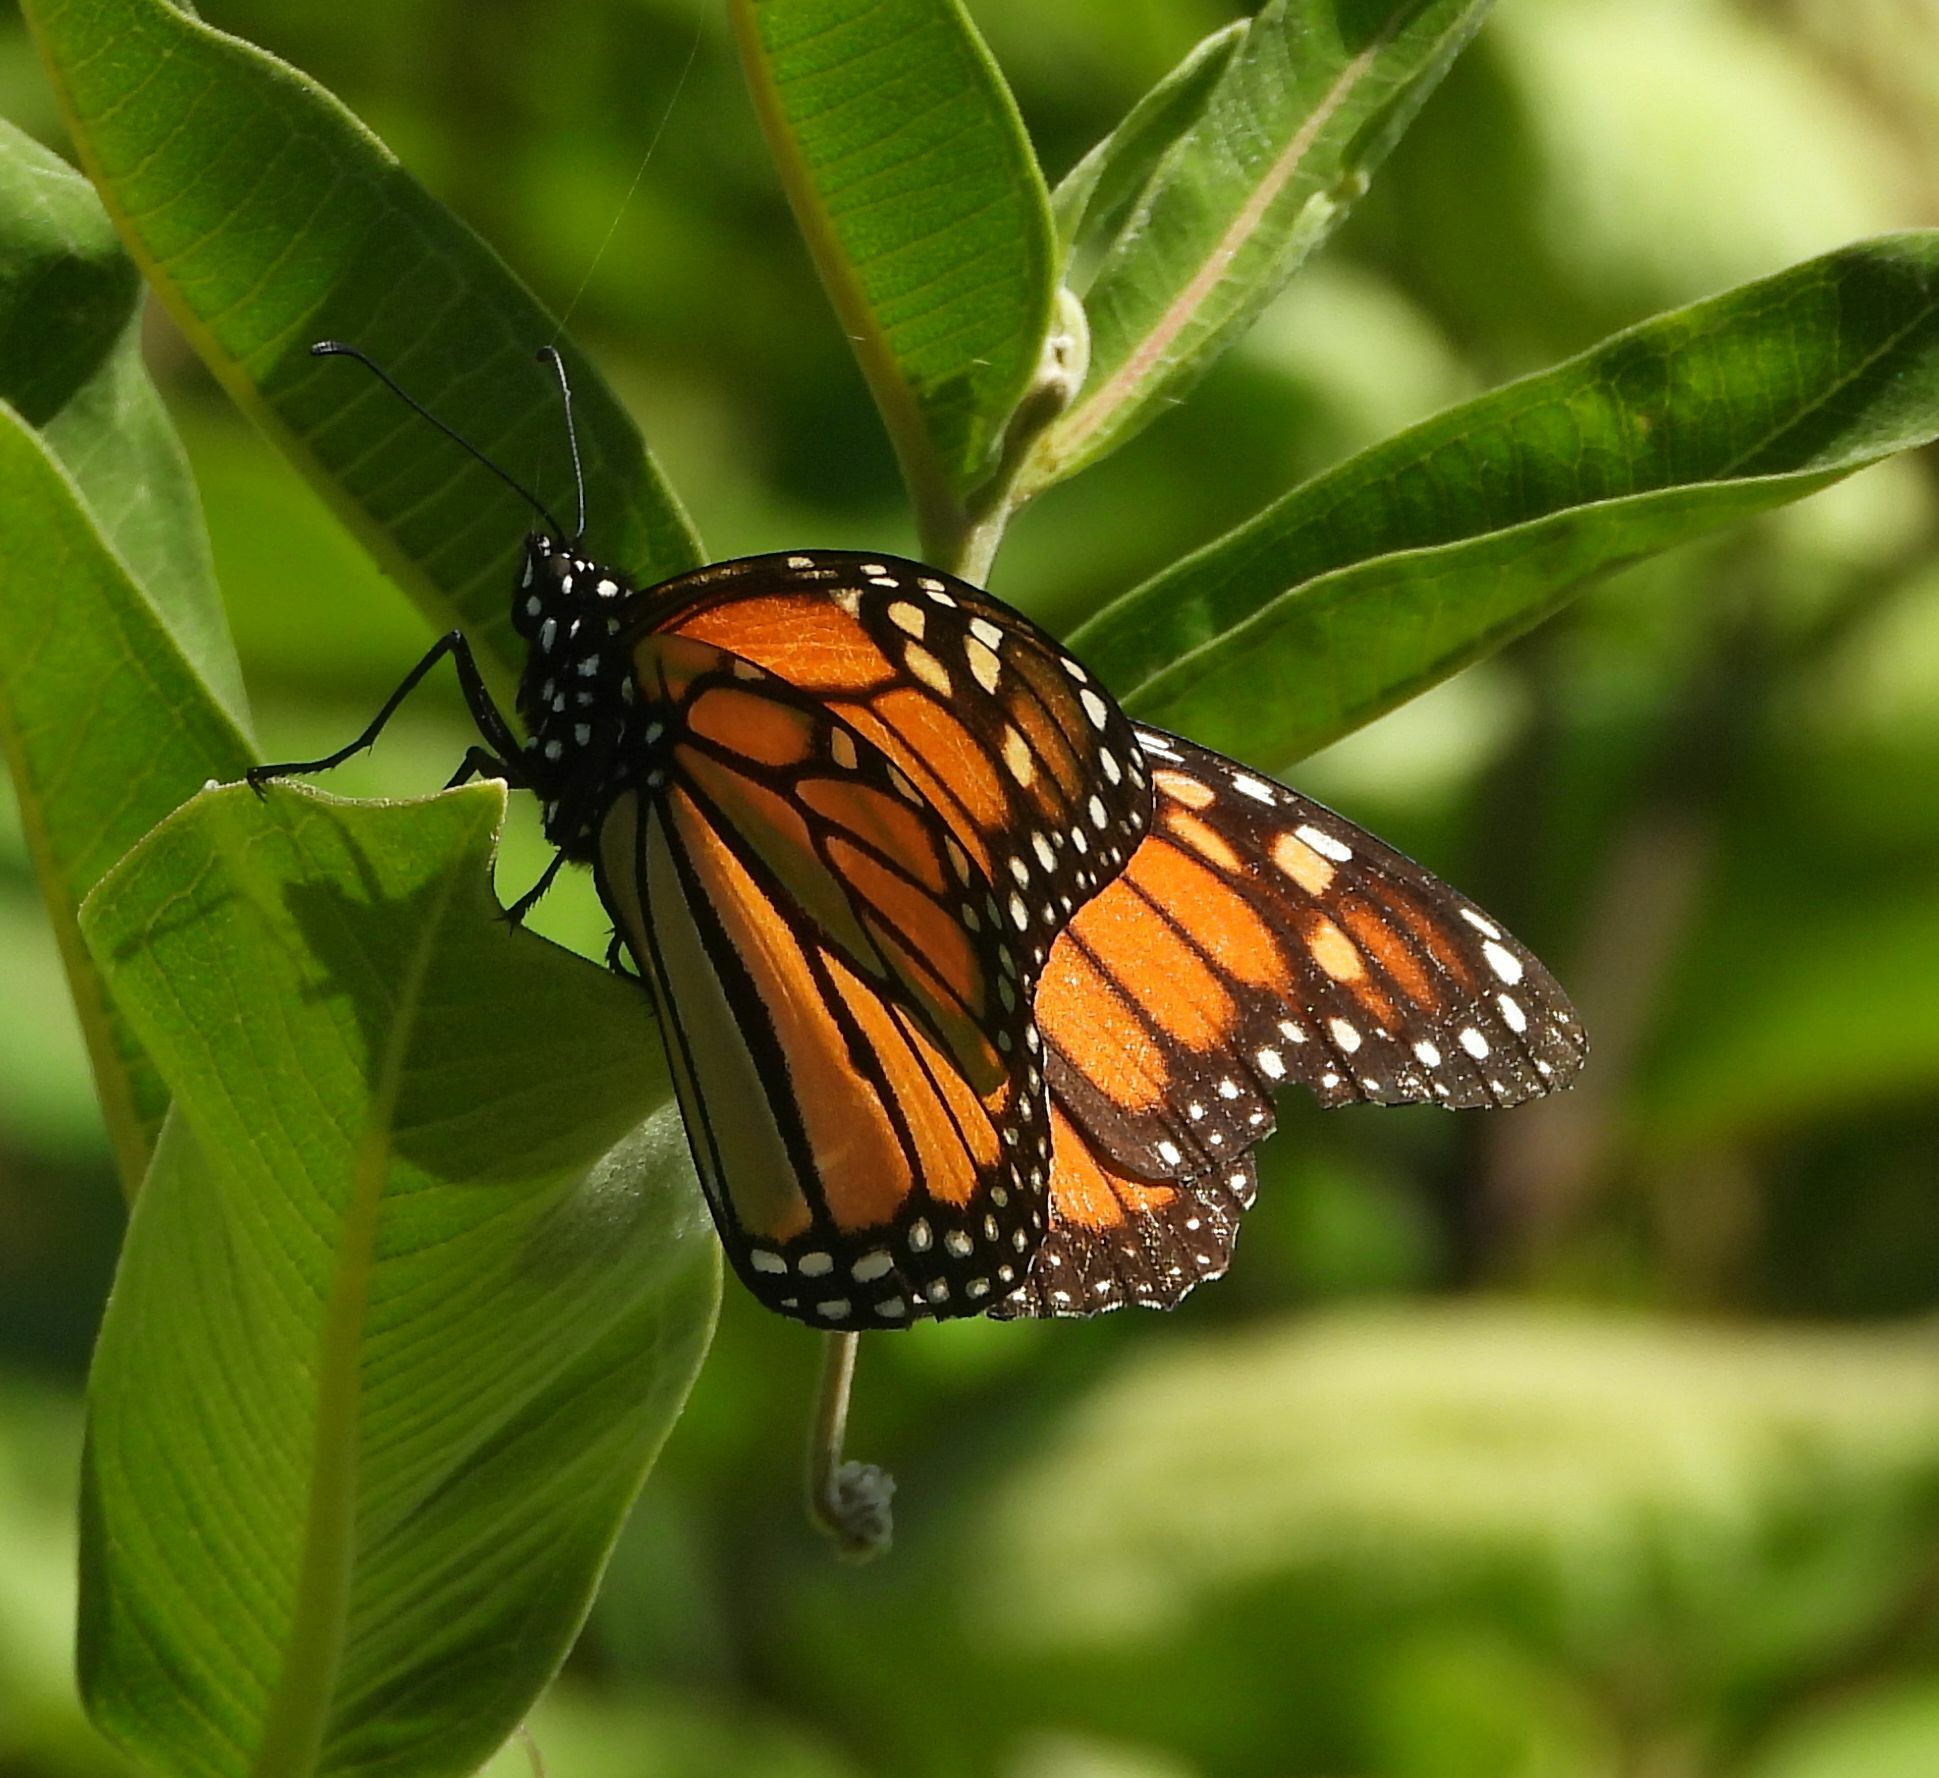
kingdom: Animalia
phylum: Arthropoda
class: Insecta
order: Lepidoptera
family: Nymphalidae
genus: Danaus
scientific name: Danaus plexippus
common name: Monarch
